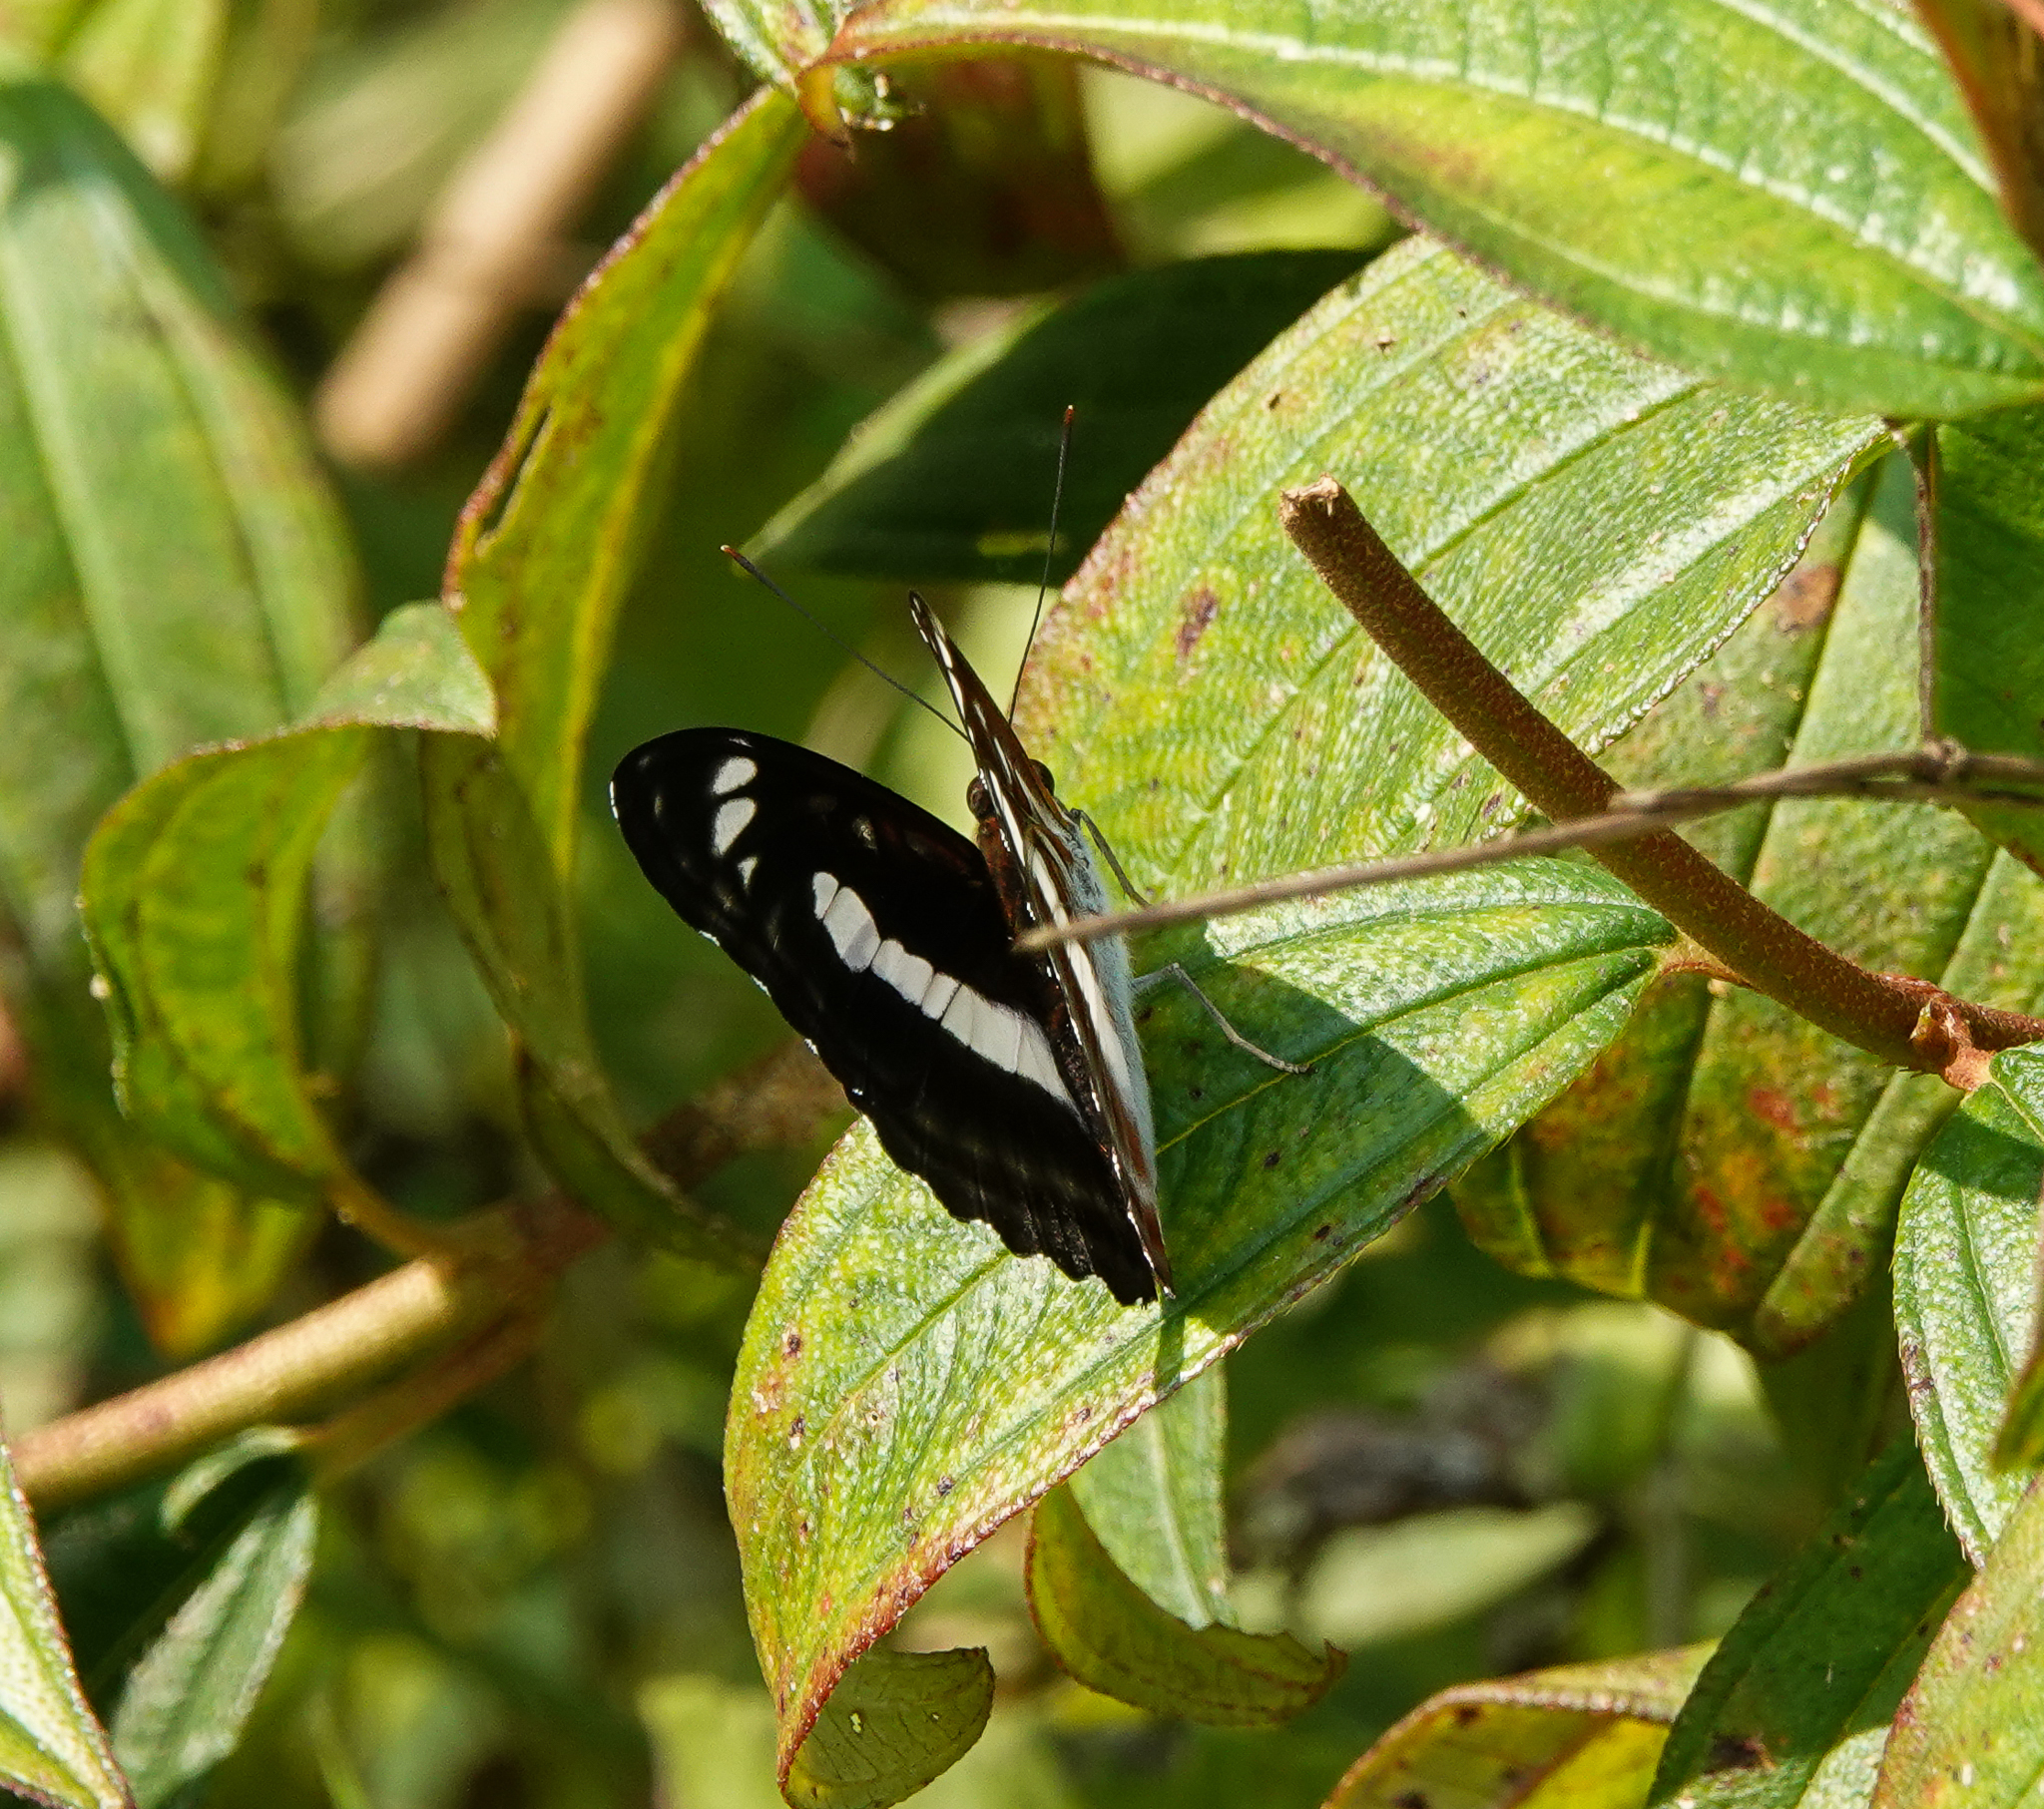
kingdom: Animalia
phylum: Arthropoda
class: Insecta
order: Lepidoptera
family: Nymphalidae
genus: Parathyma
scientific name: Parathyma selenophora
